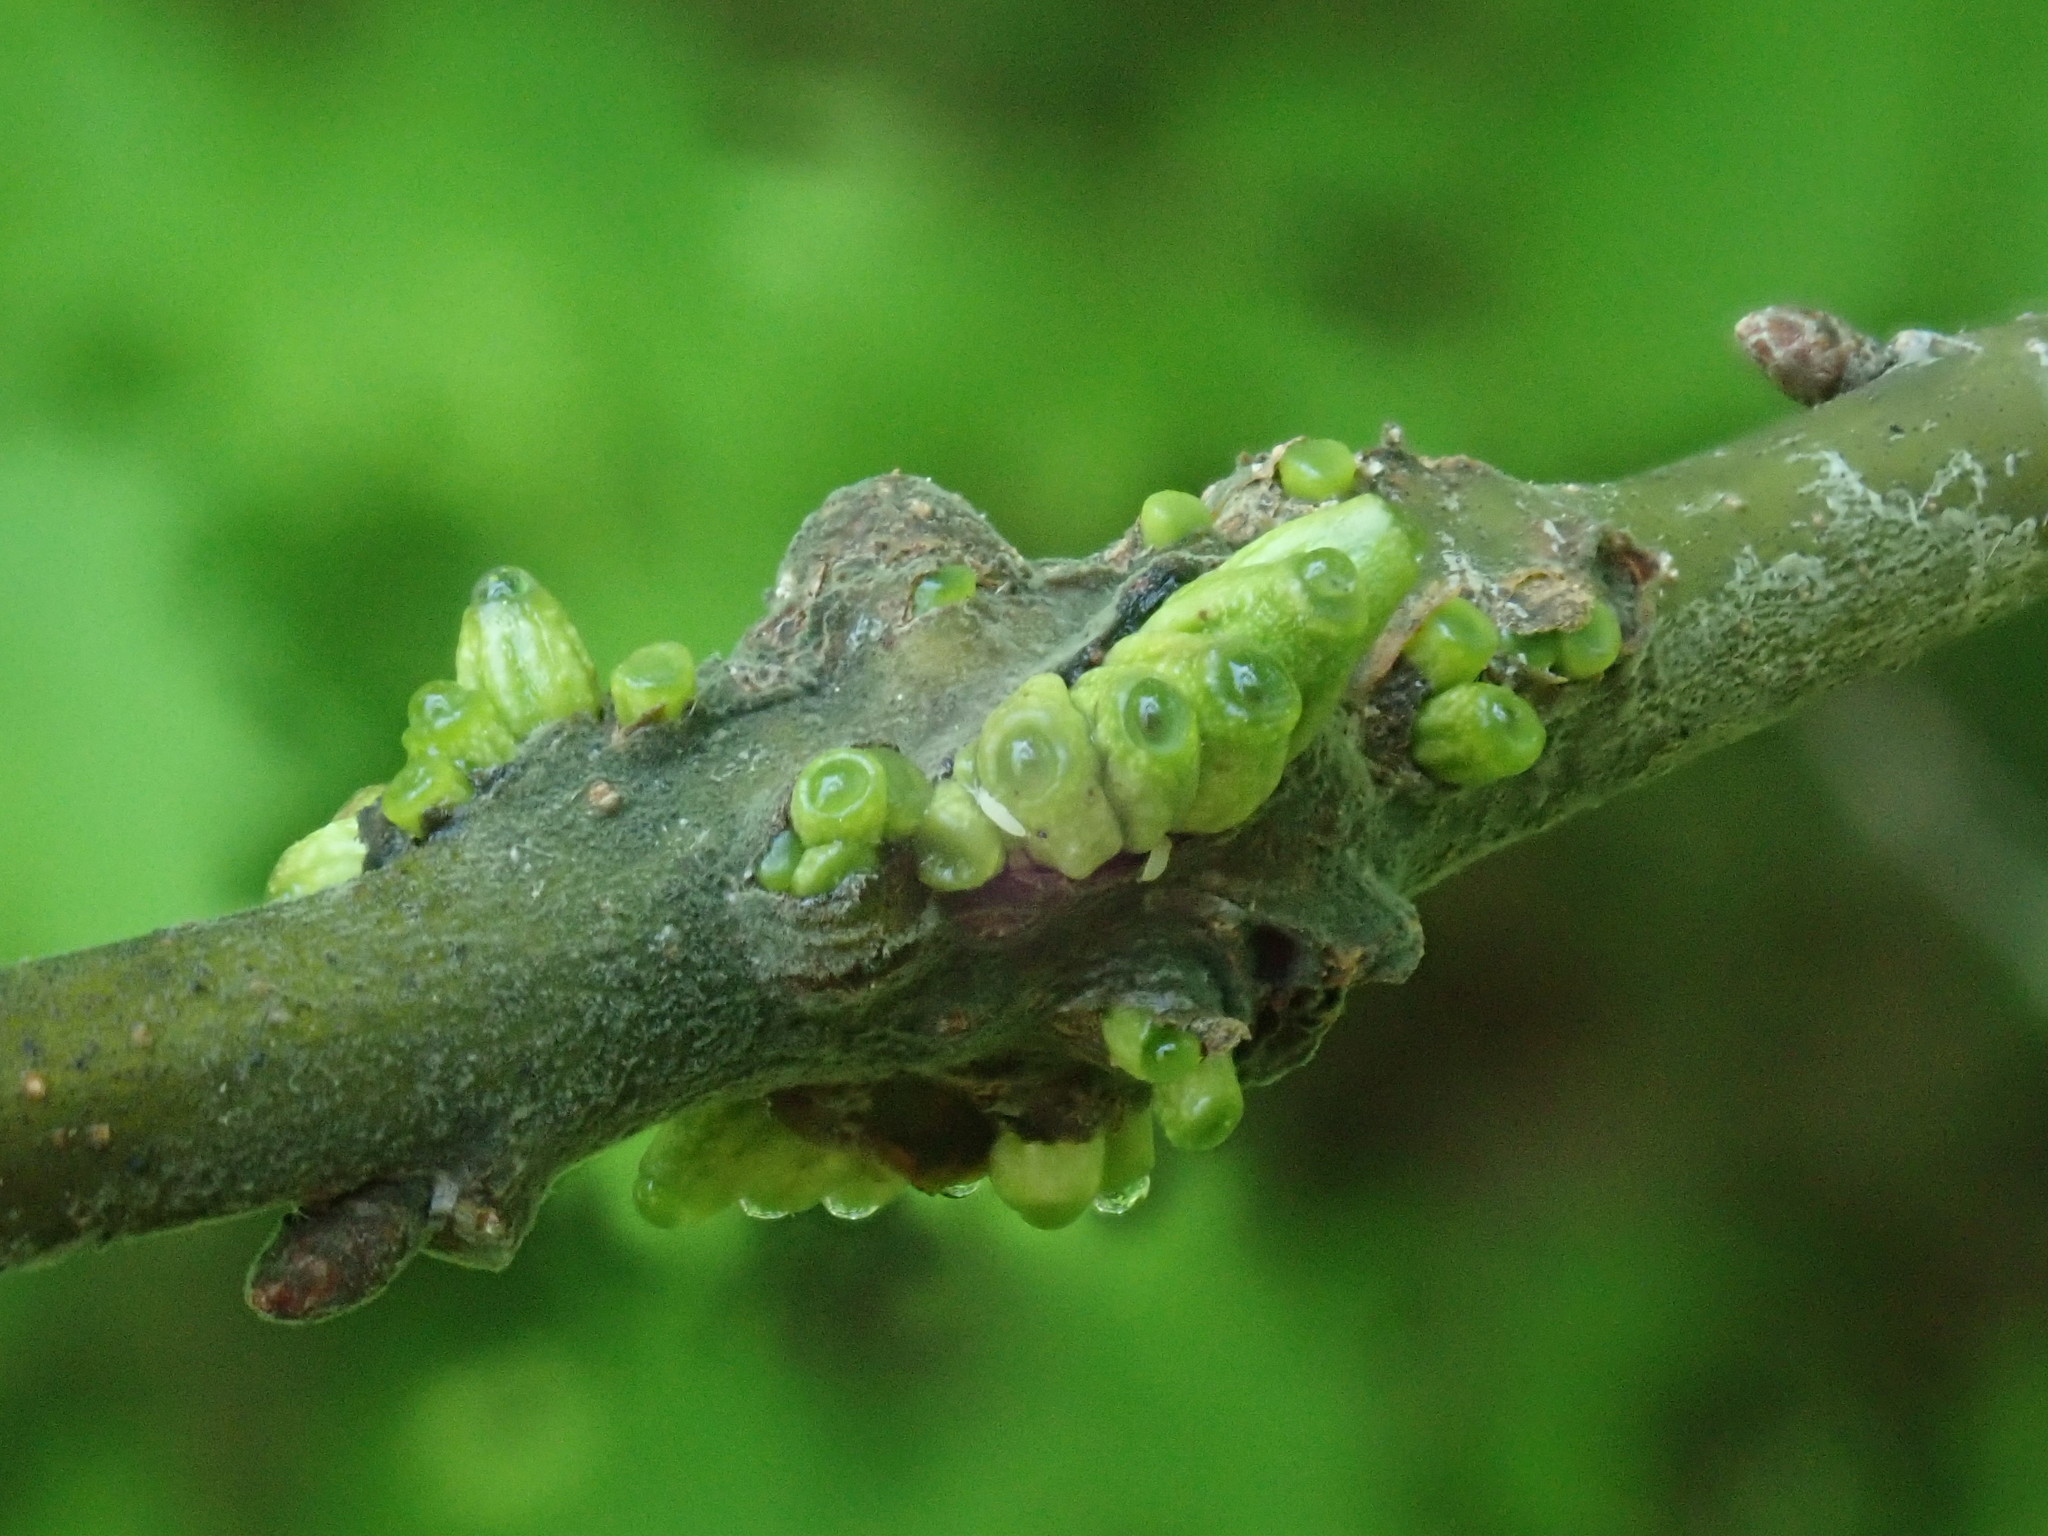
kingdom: Animalia
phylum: Arthropoda
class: Insecta
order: Hymenoptera
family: Cynipidae
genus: Callirhytis
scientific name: Callirhytis
